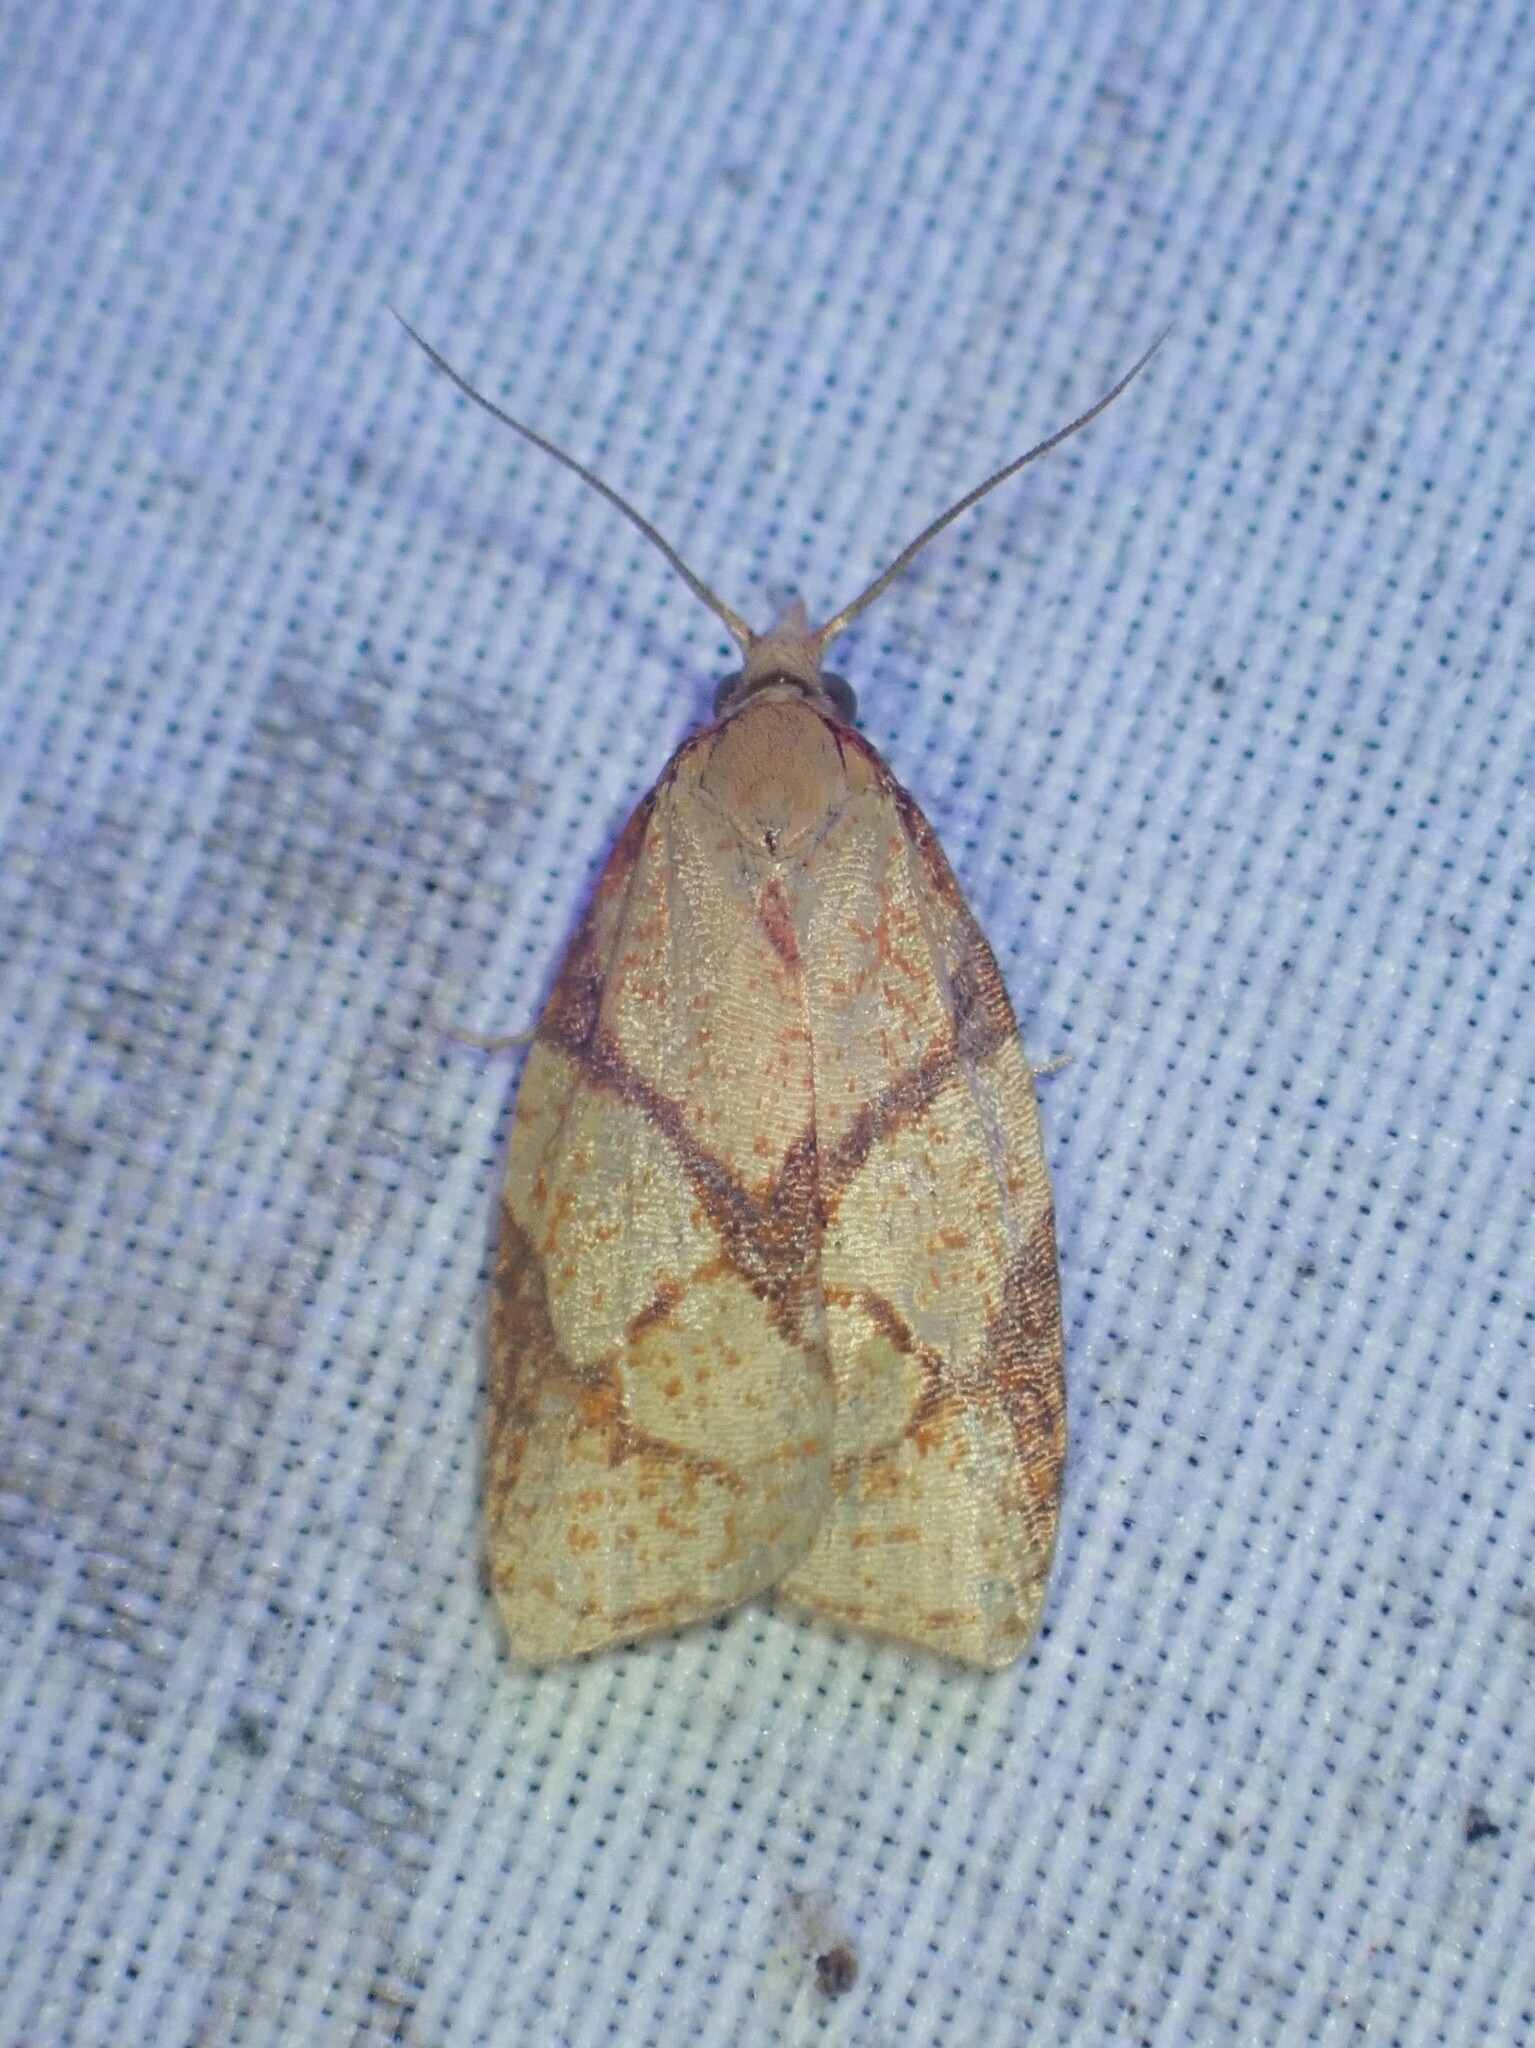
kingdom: Animalia
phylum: Arthropoda
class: Insecta
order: Lepidoptera
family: Tortricidae
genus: Cenopis
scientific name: Cenopis reticulatana
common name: Reticulated fruitworm moth
